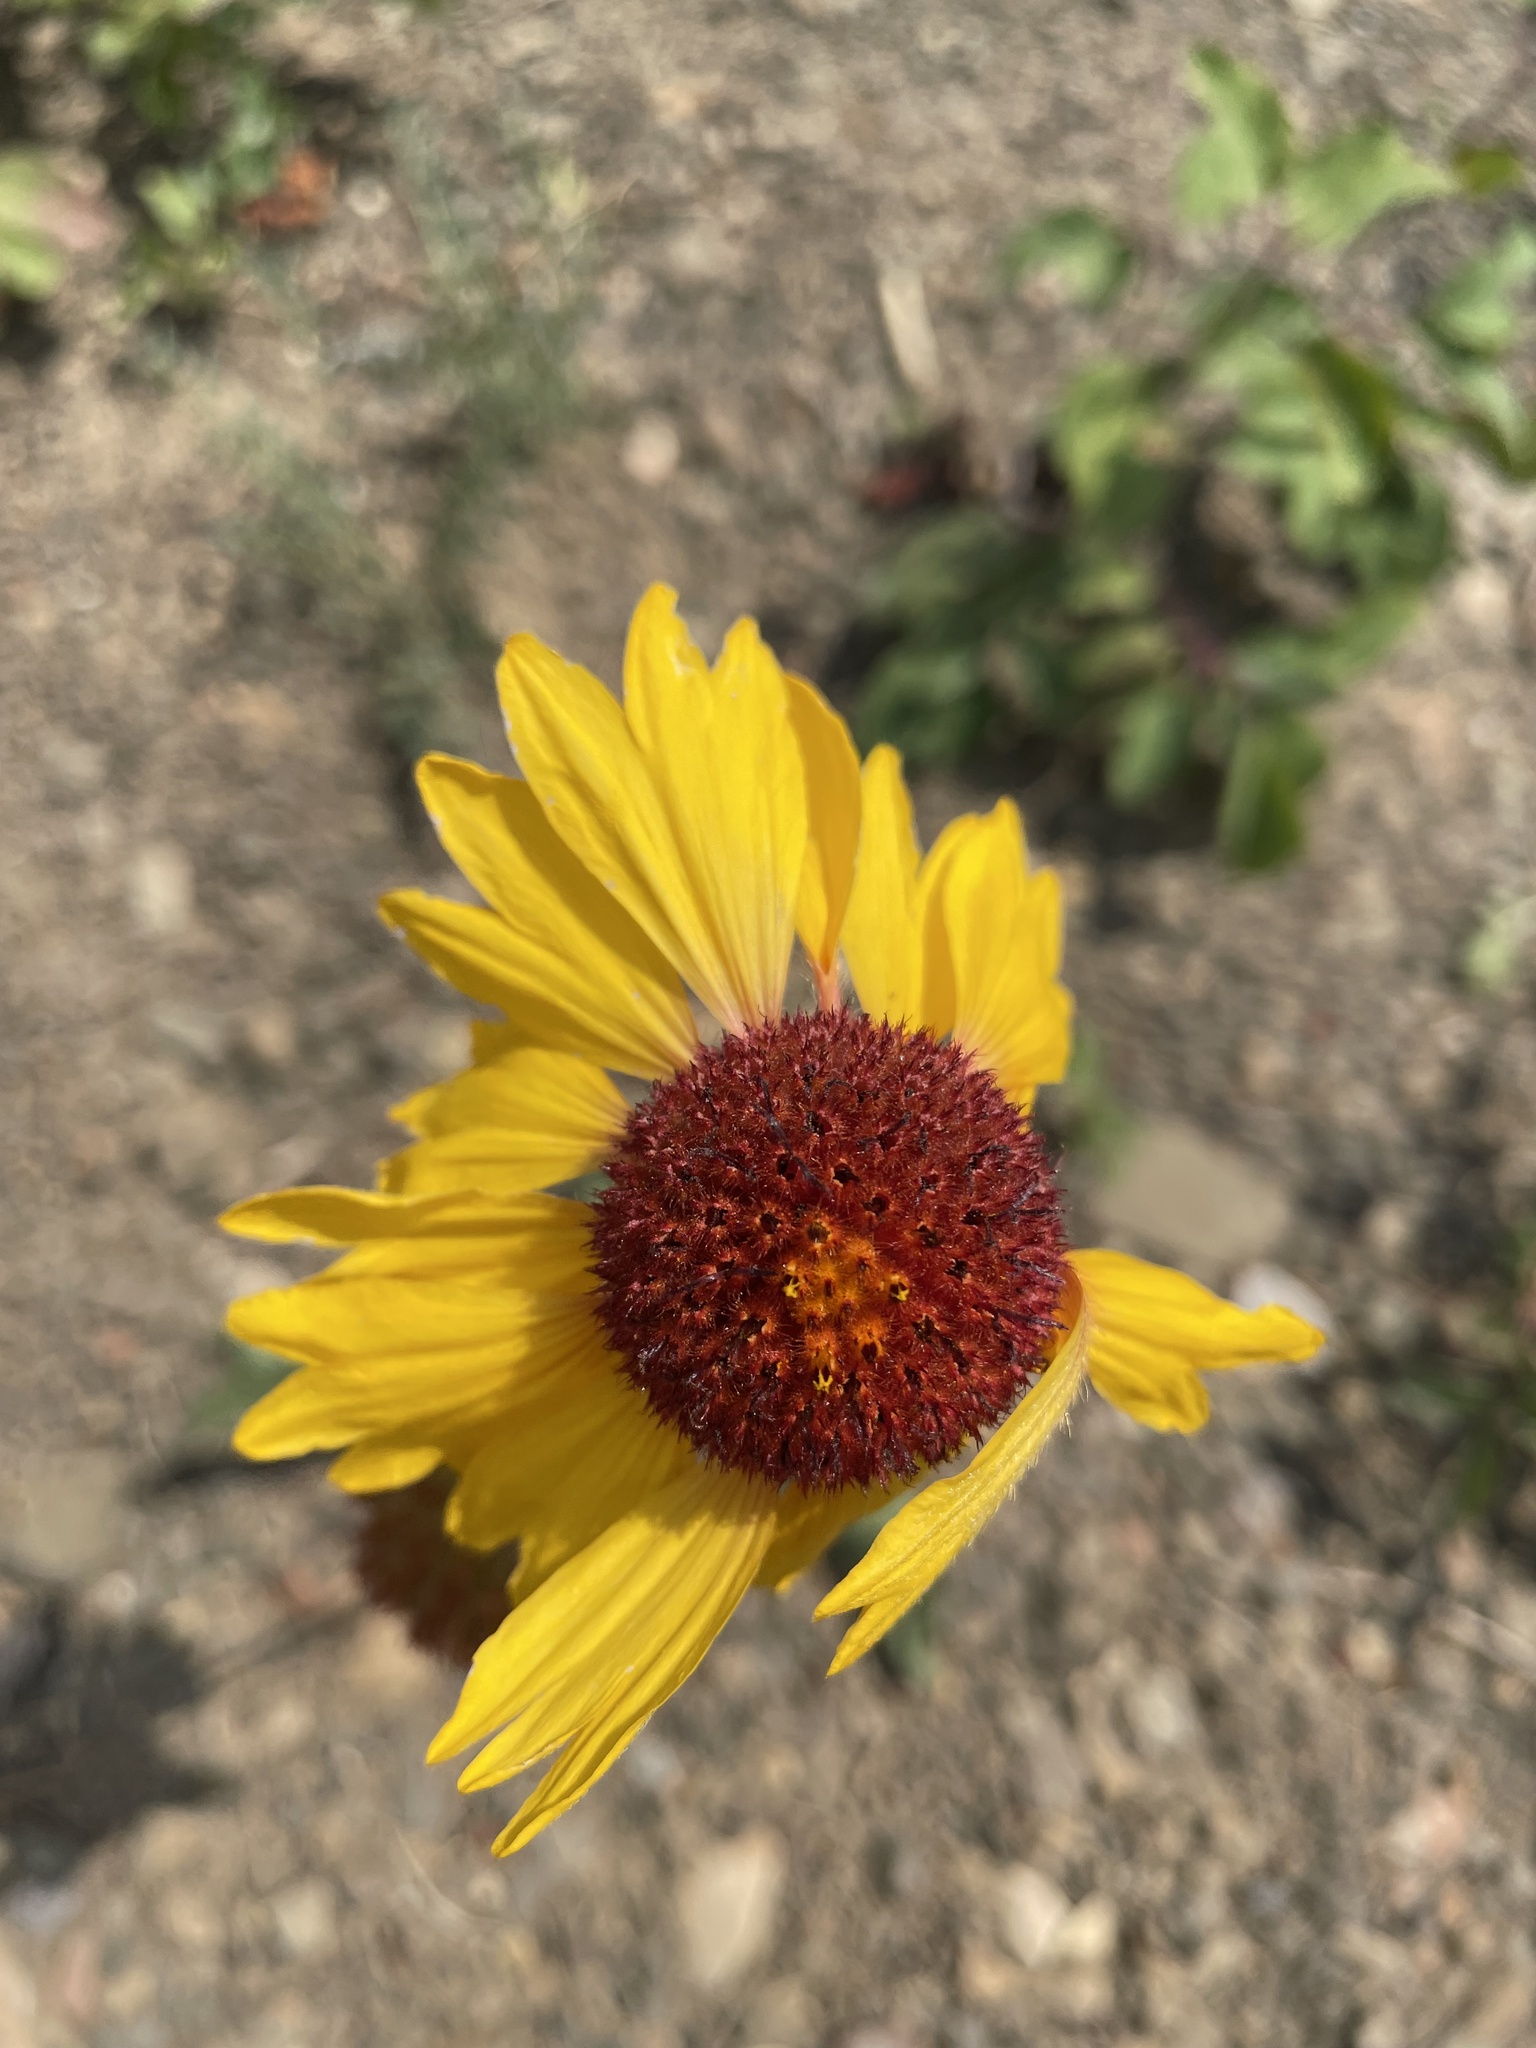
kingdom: Plantae
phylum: Tracheophyta
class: Magnoliopsida
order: Asterales
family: Asteraceae
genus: Gaillardia
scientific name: Gaillardia aristata
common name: Blanket-flower
